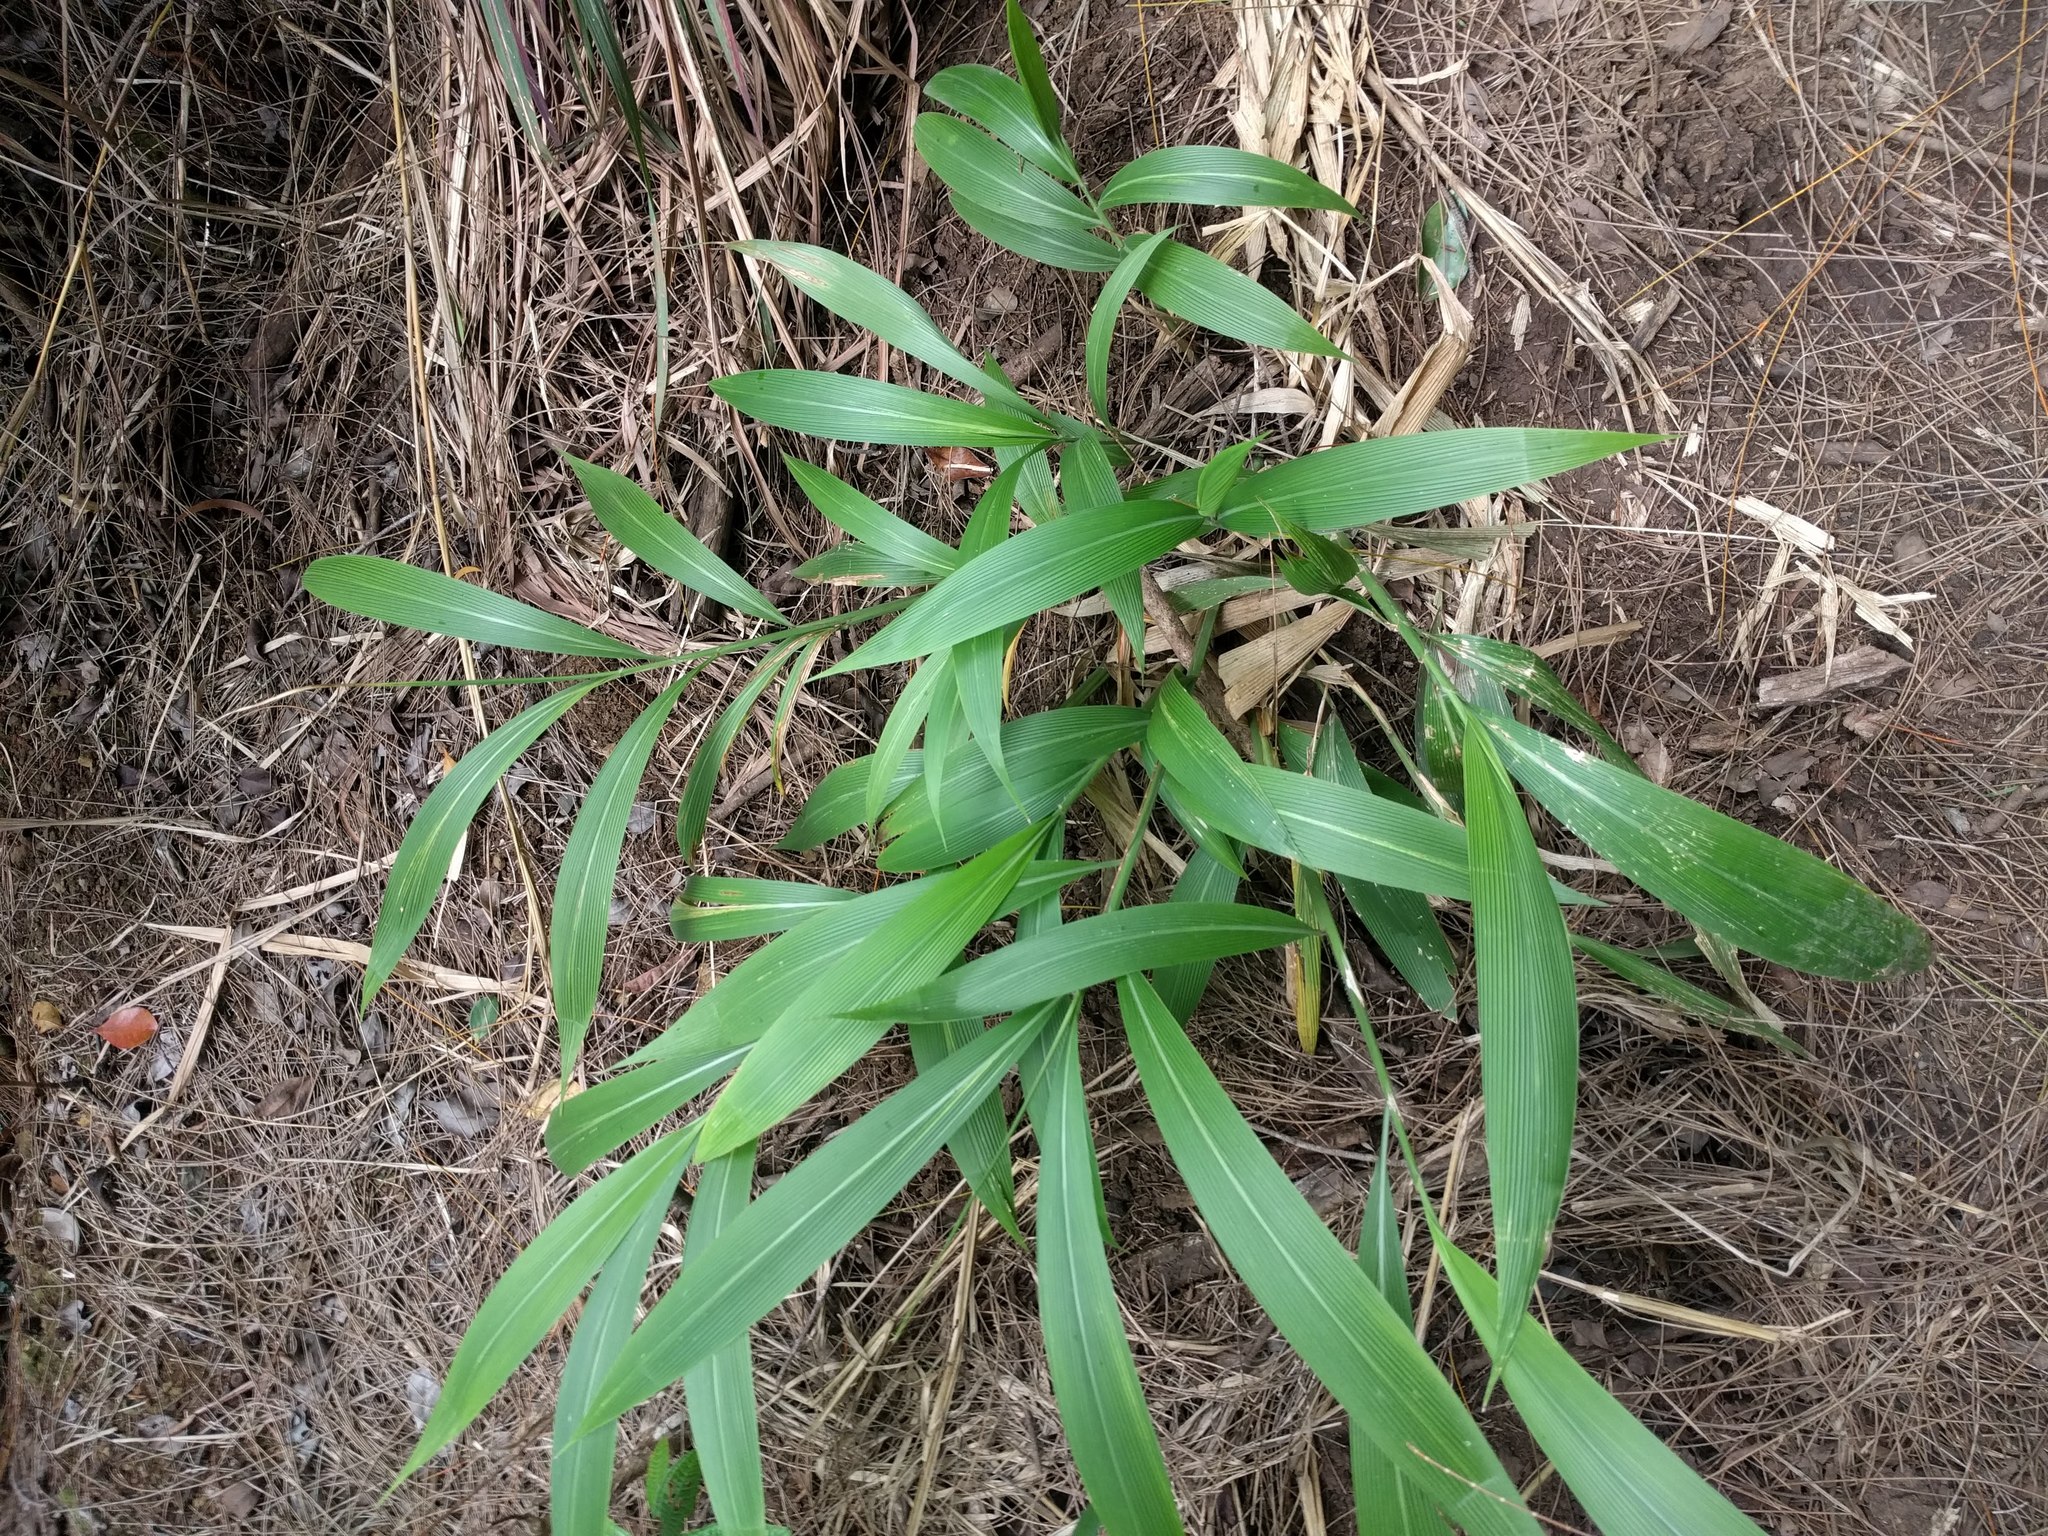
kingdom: Plantae
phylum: Tracheophyta
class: Liliopsida
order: Poales
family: Poaceae
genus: Setaria
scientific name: Setaria palmifolia
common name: Broadleaved bristlegrass
